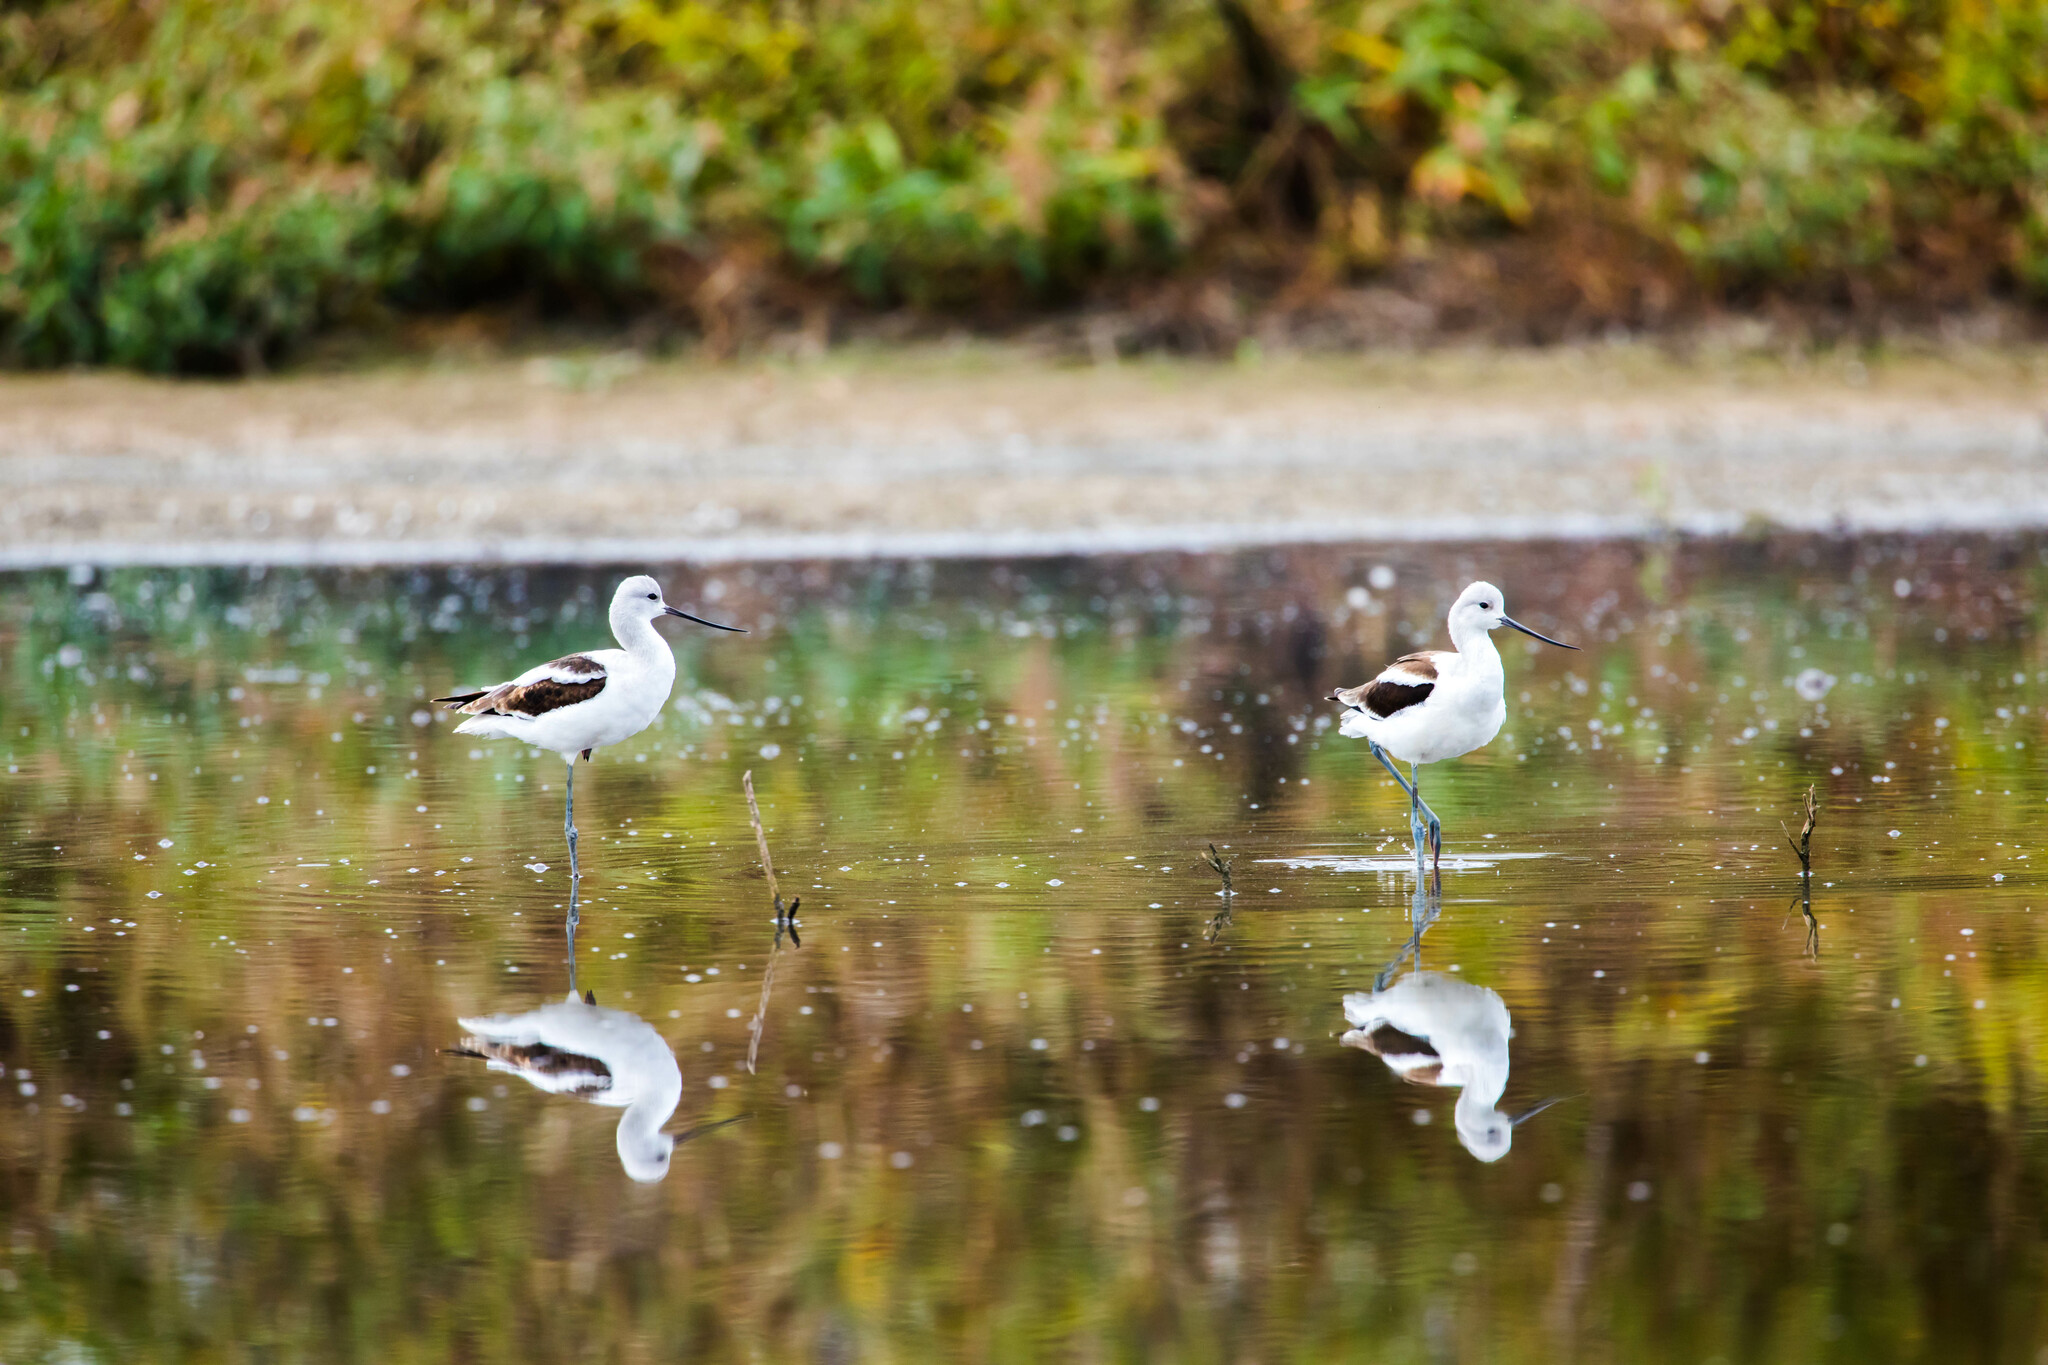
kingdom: Animalia
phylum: Chordata
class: Aves
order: Charadriiformes
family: Recurvirostridae
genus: Recurvirostra
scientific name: Recurvirostra americana
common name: American avocet
